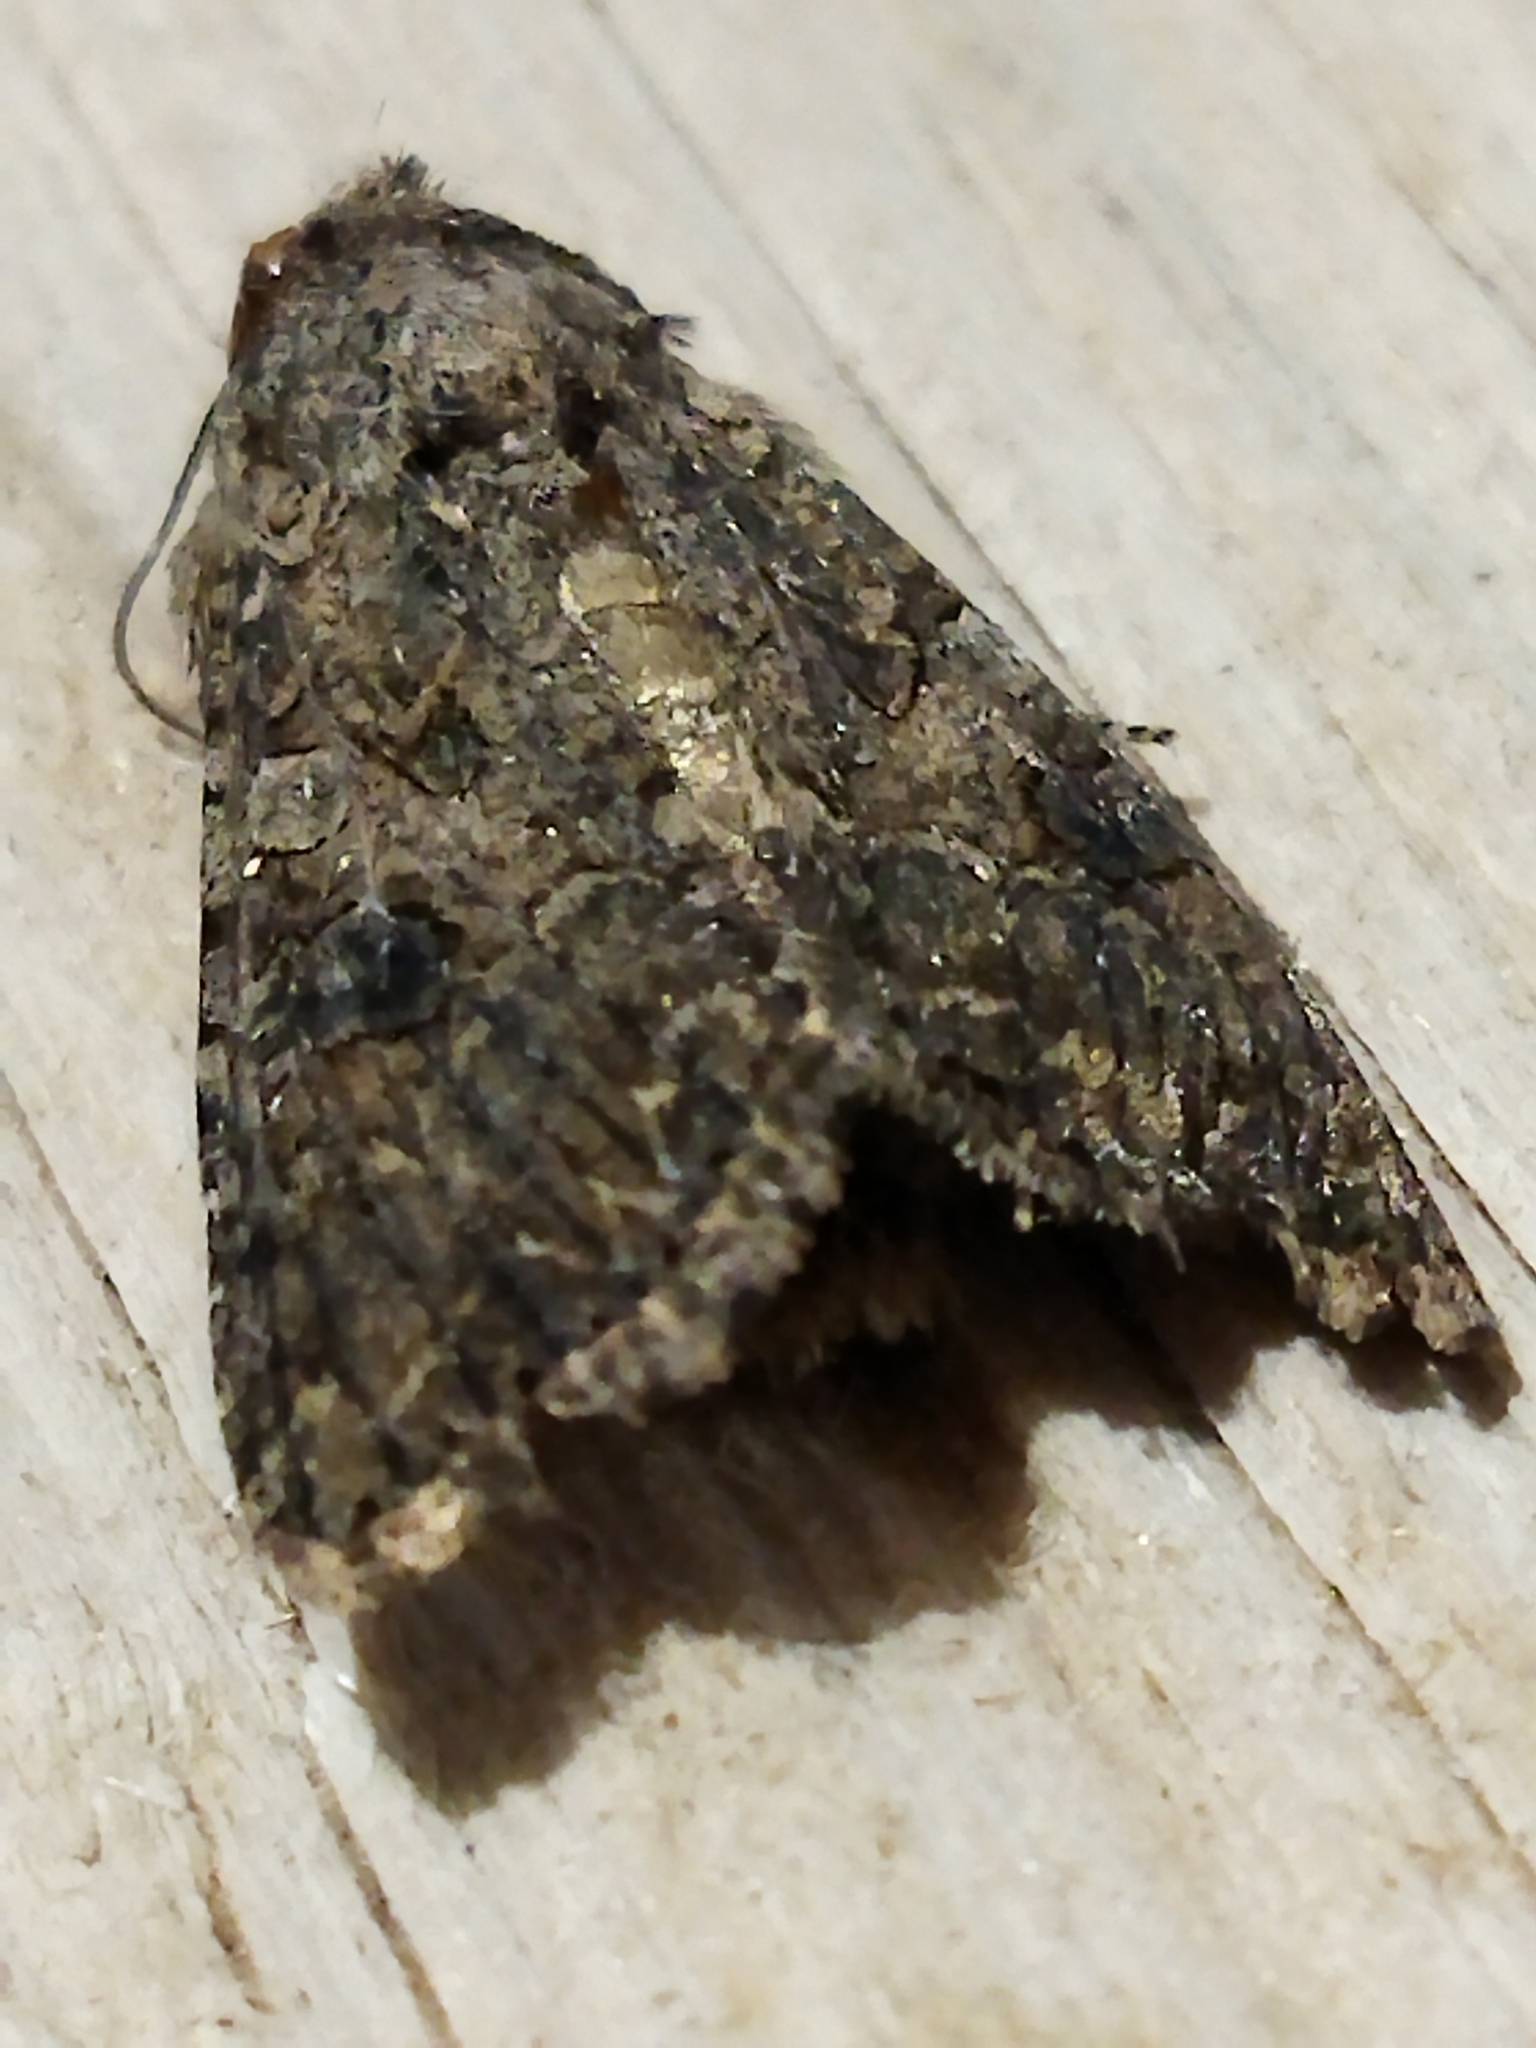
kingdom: Animalia
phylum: Arthropoda
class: Insecta
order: Lepidoptera
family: Noctuidae
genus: Anarta
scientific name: Anarta trifolii
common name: Clover cutworm moth
